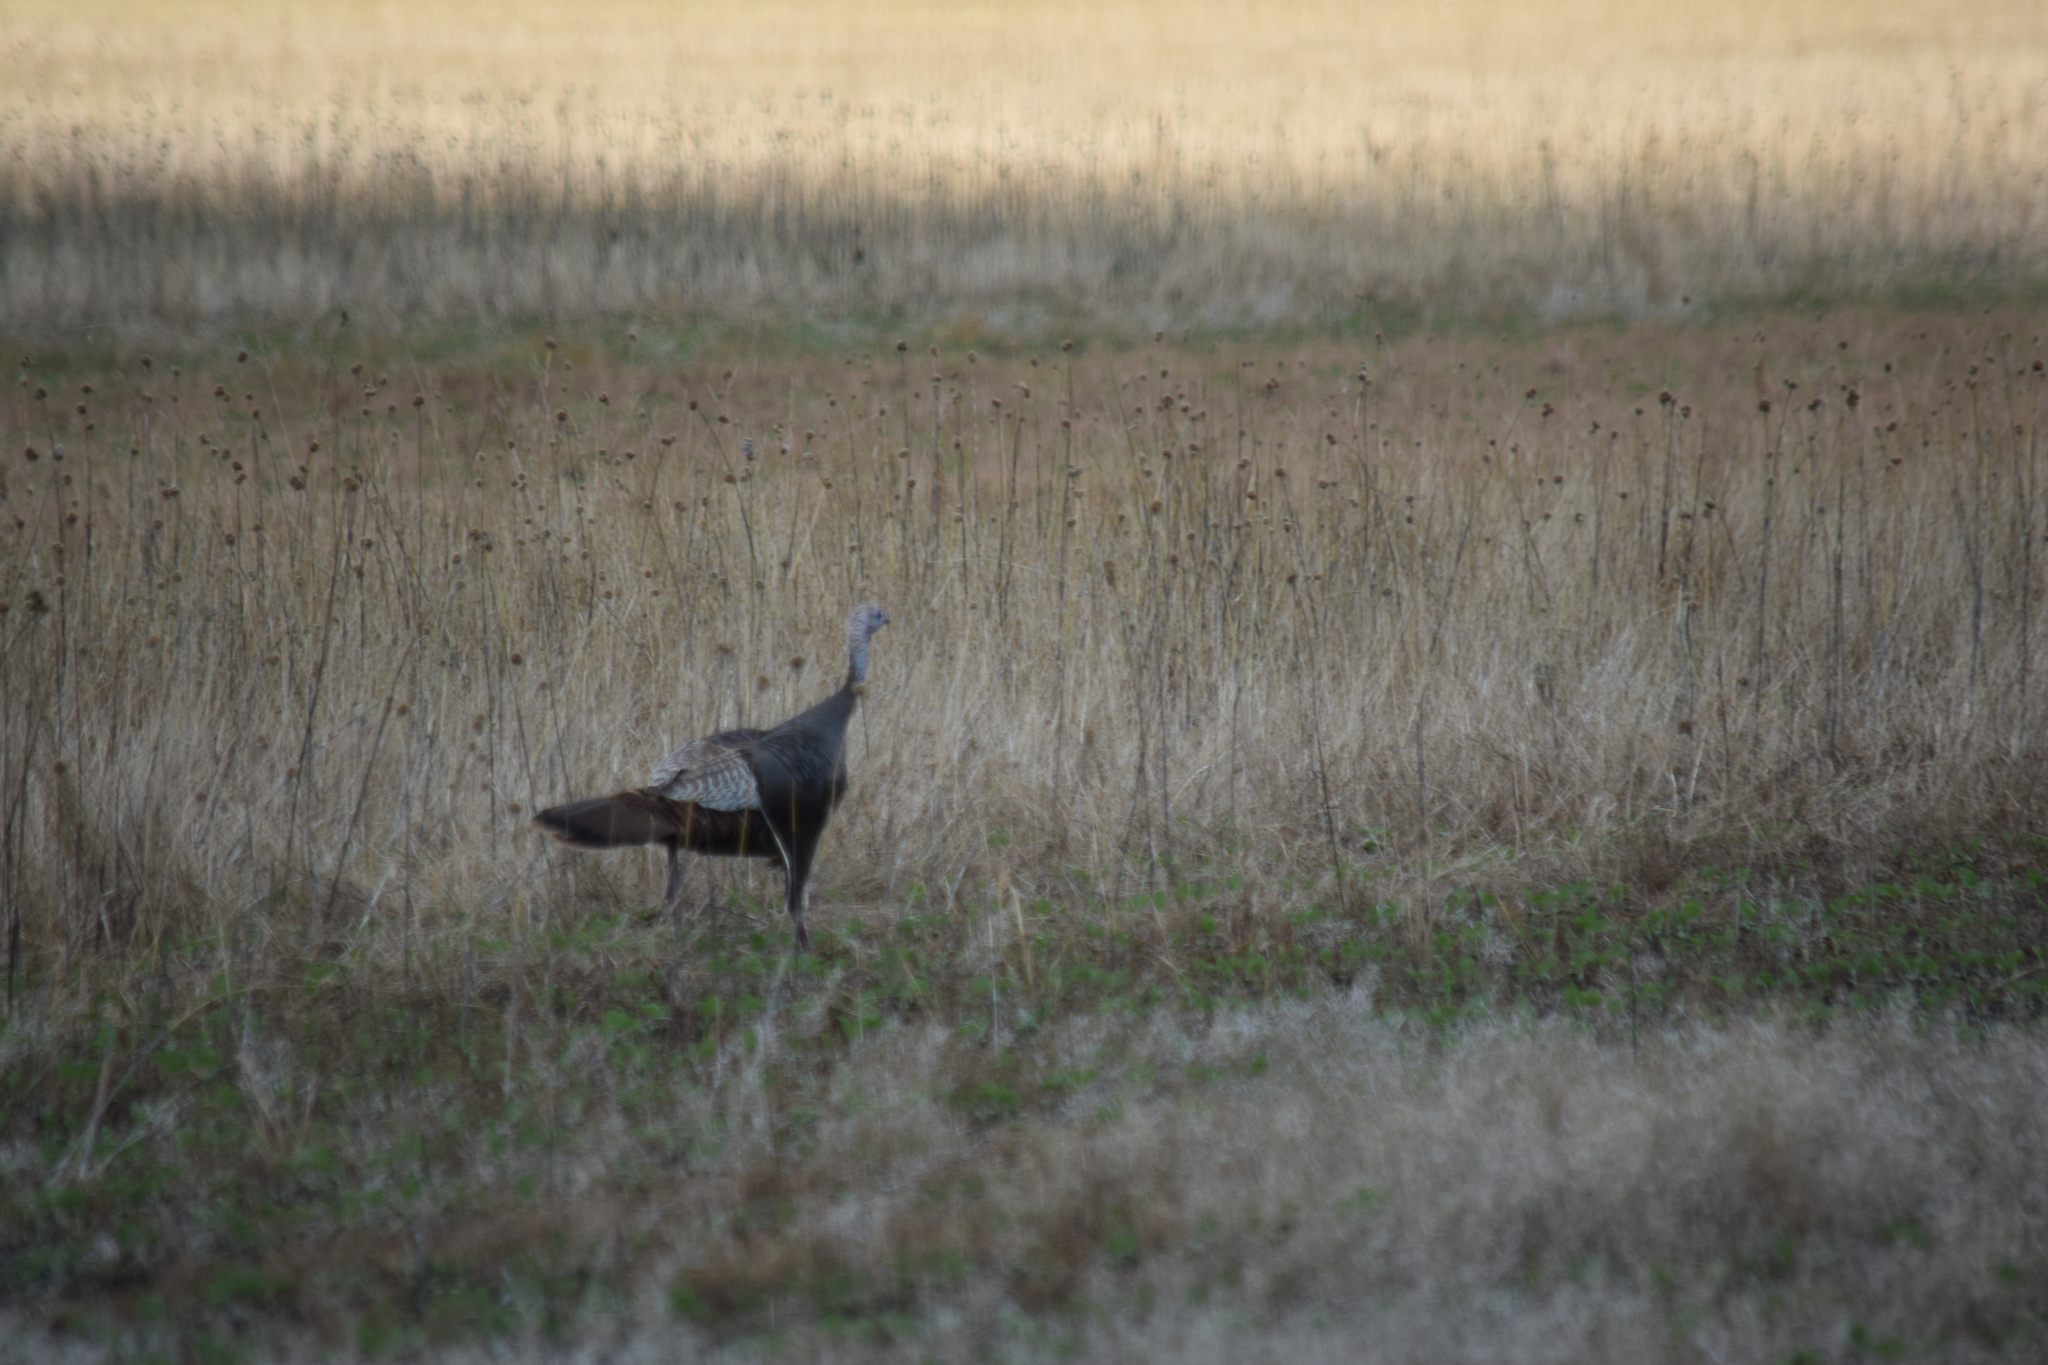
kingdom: Animalia
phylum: Chordata
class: Aves
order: Galliformes
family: Phasianidae
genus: Meleagris
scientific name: Meleagris gallopavo
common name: Wild turkey
